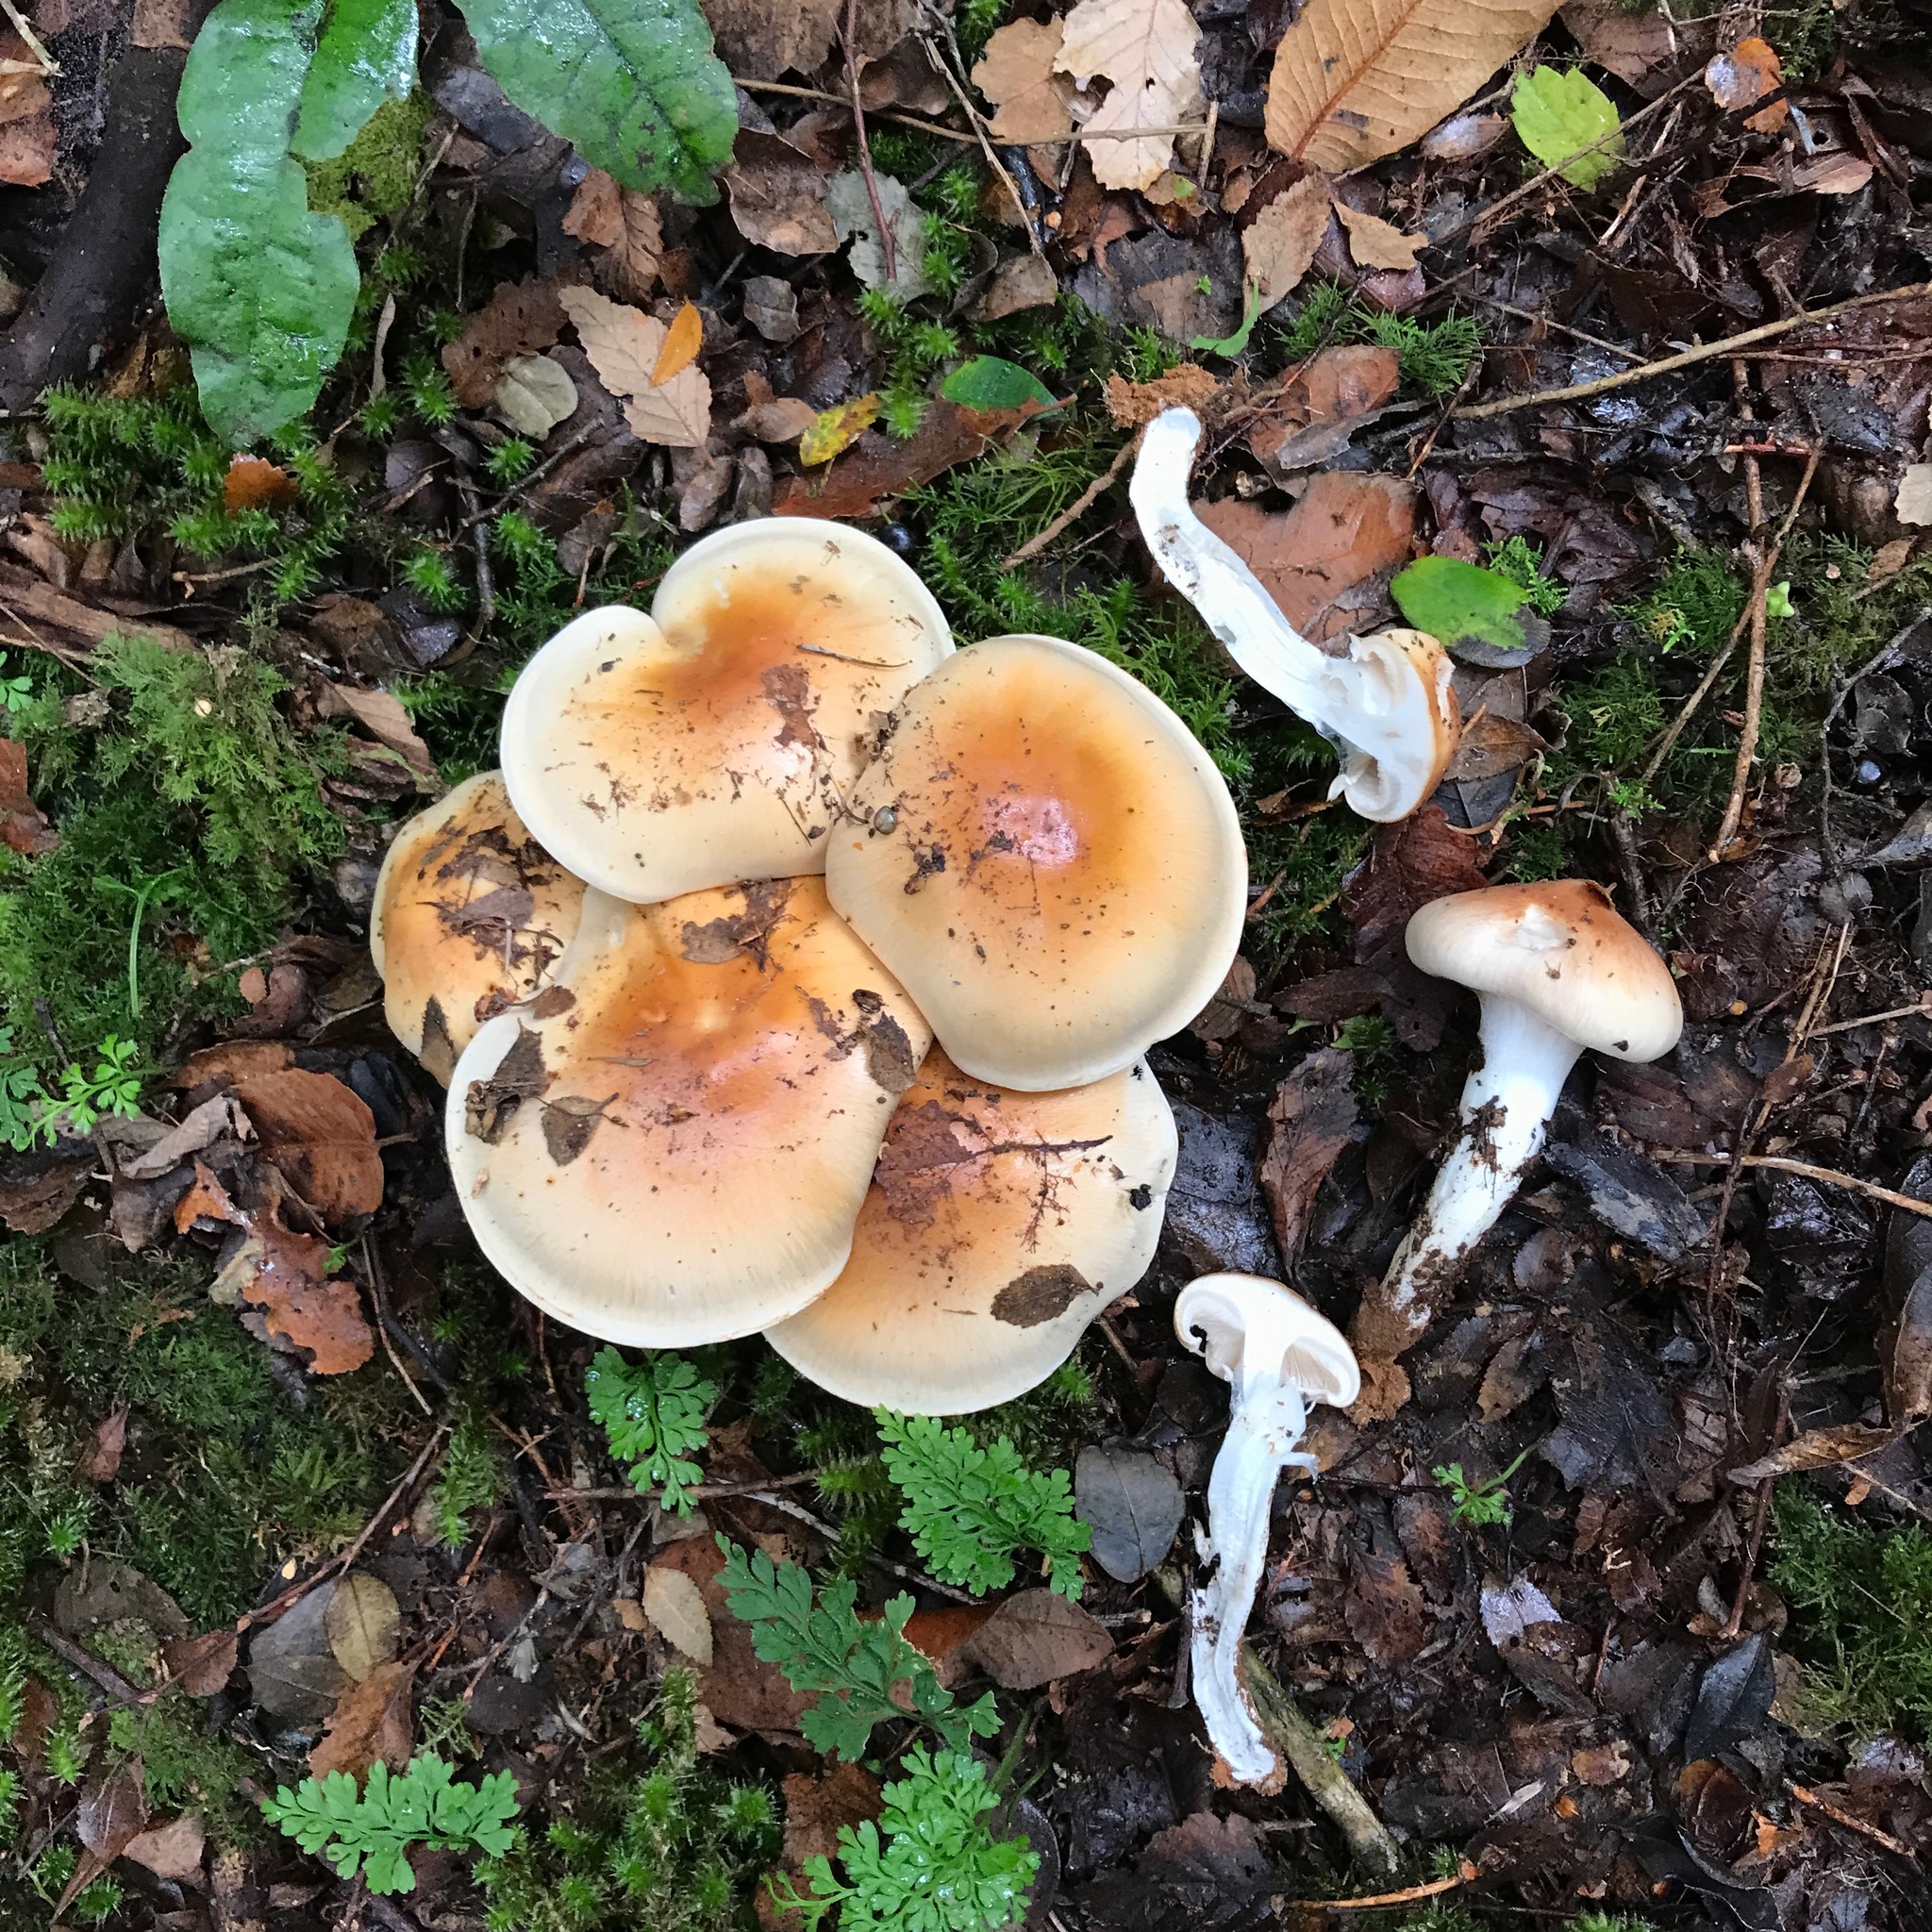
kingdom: Fungi
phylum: Basidiomycota
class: Agaricomycetes
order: Agaricales
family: Cortinariaceae
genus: Thaxterogaster
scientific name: Thaxterogaster austroturmalis
